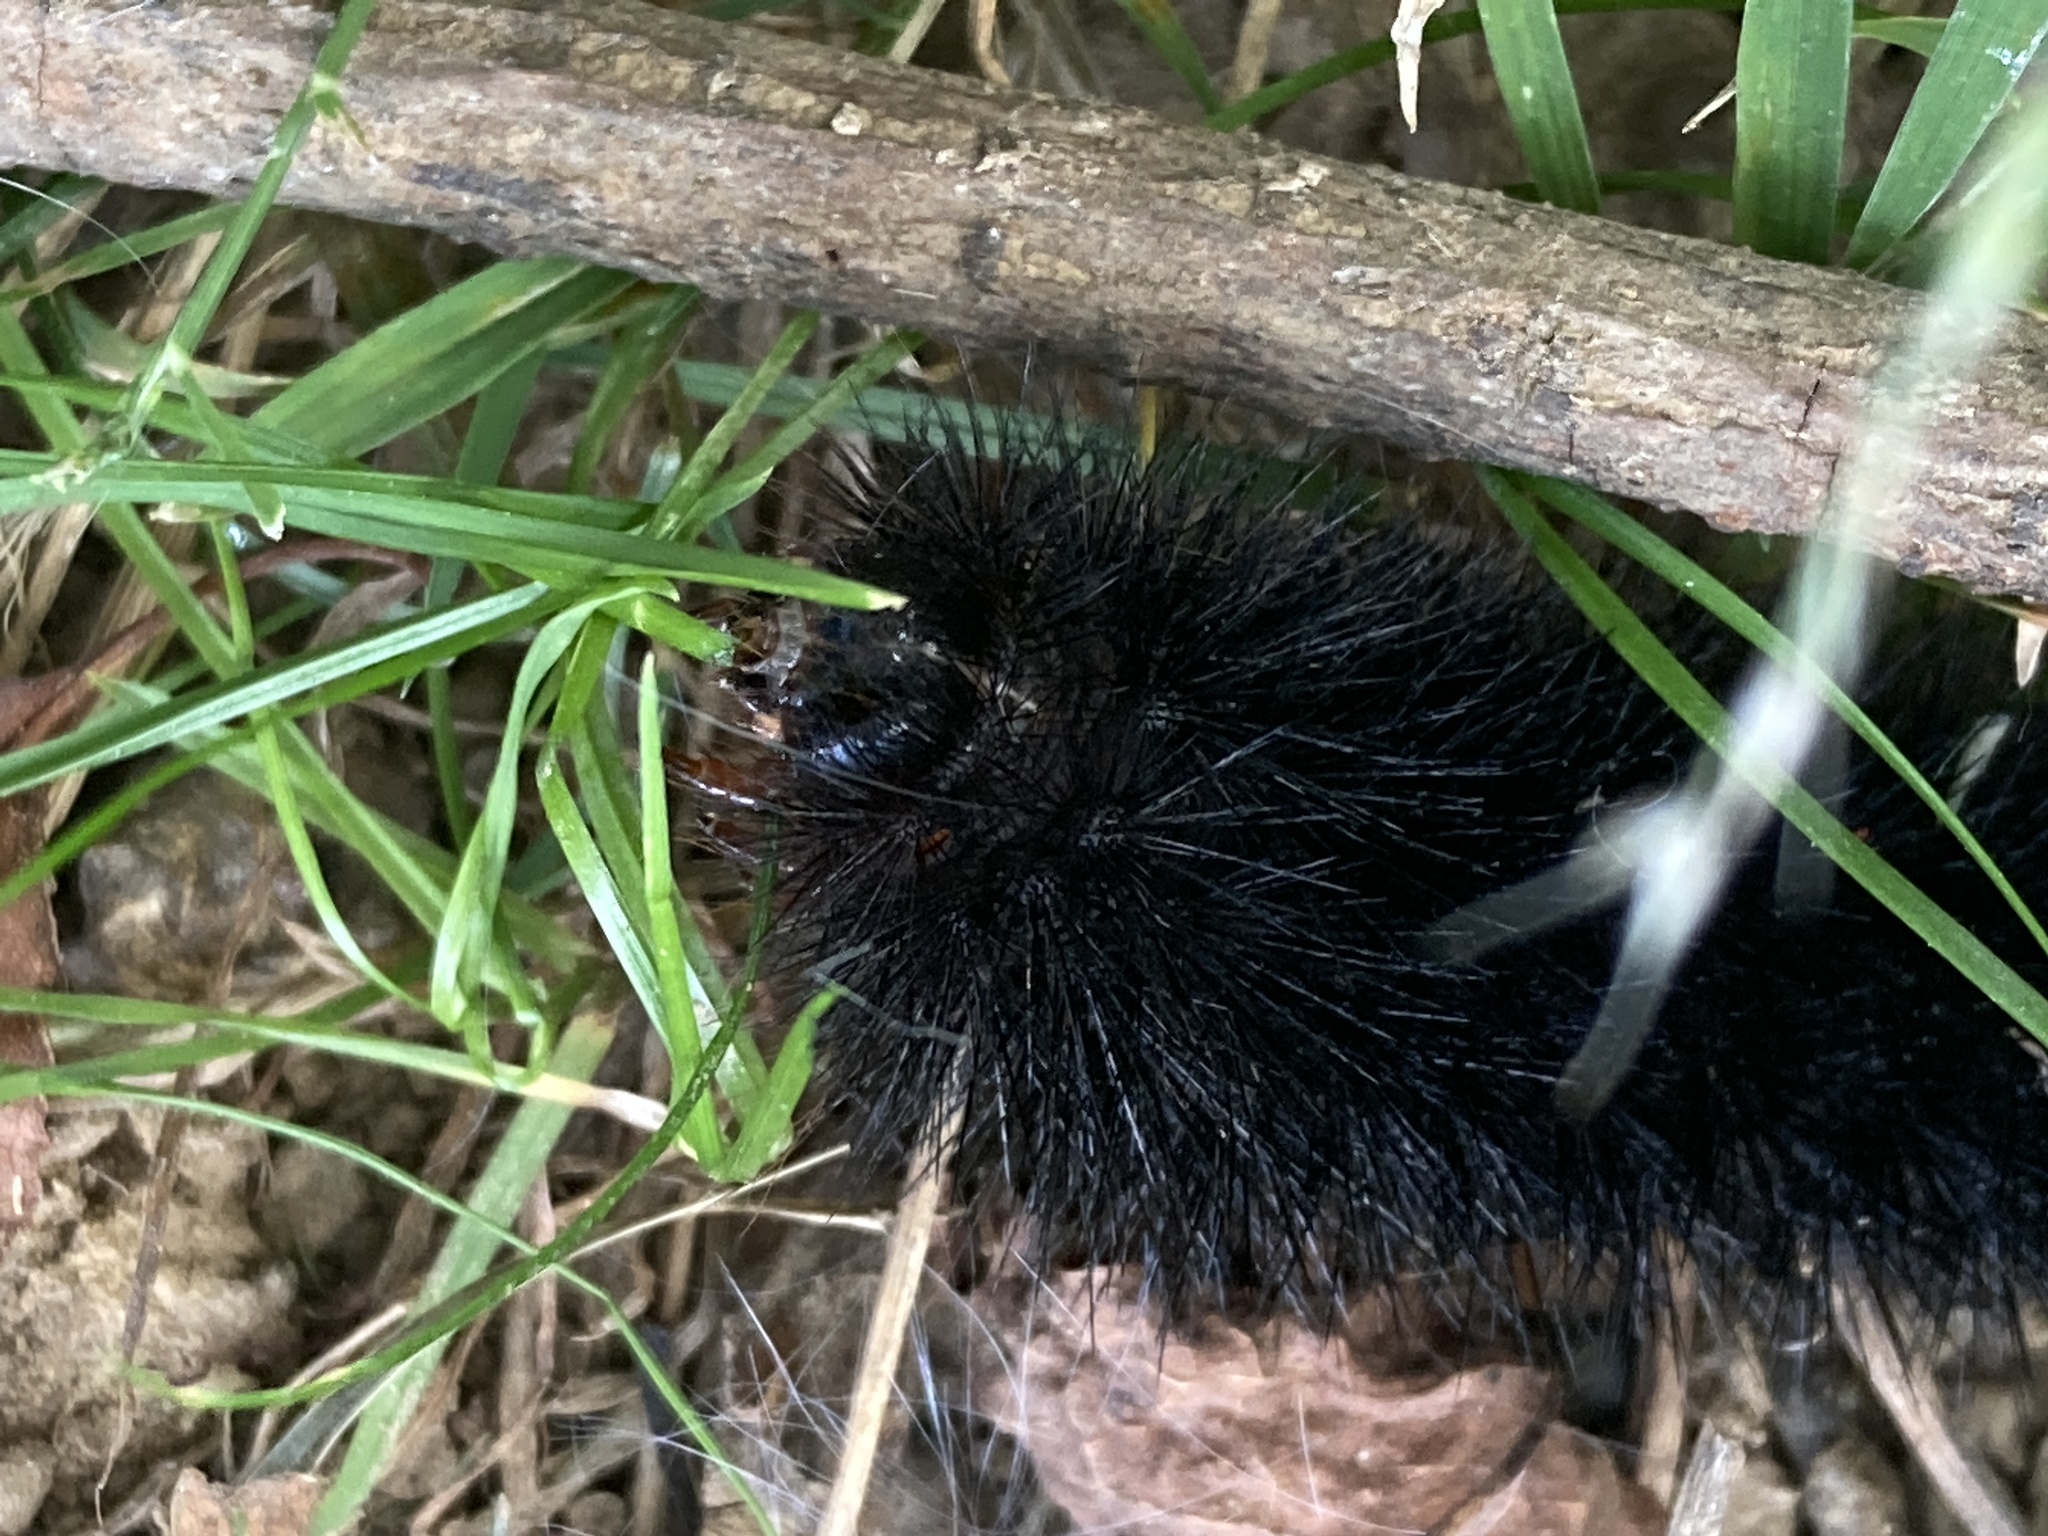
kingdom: Animalia
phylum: Arthropoda
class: Insecta
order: Lepidoptera
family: Erebidae
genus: Hypercompe
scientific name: Hypercompe scribonia
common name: Giant leopard moth
